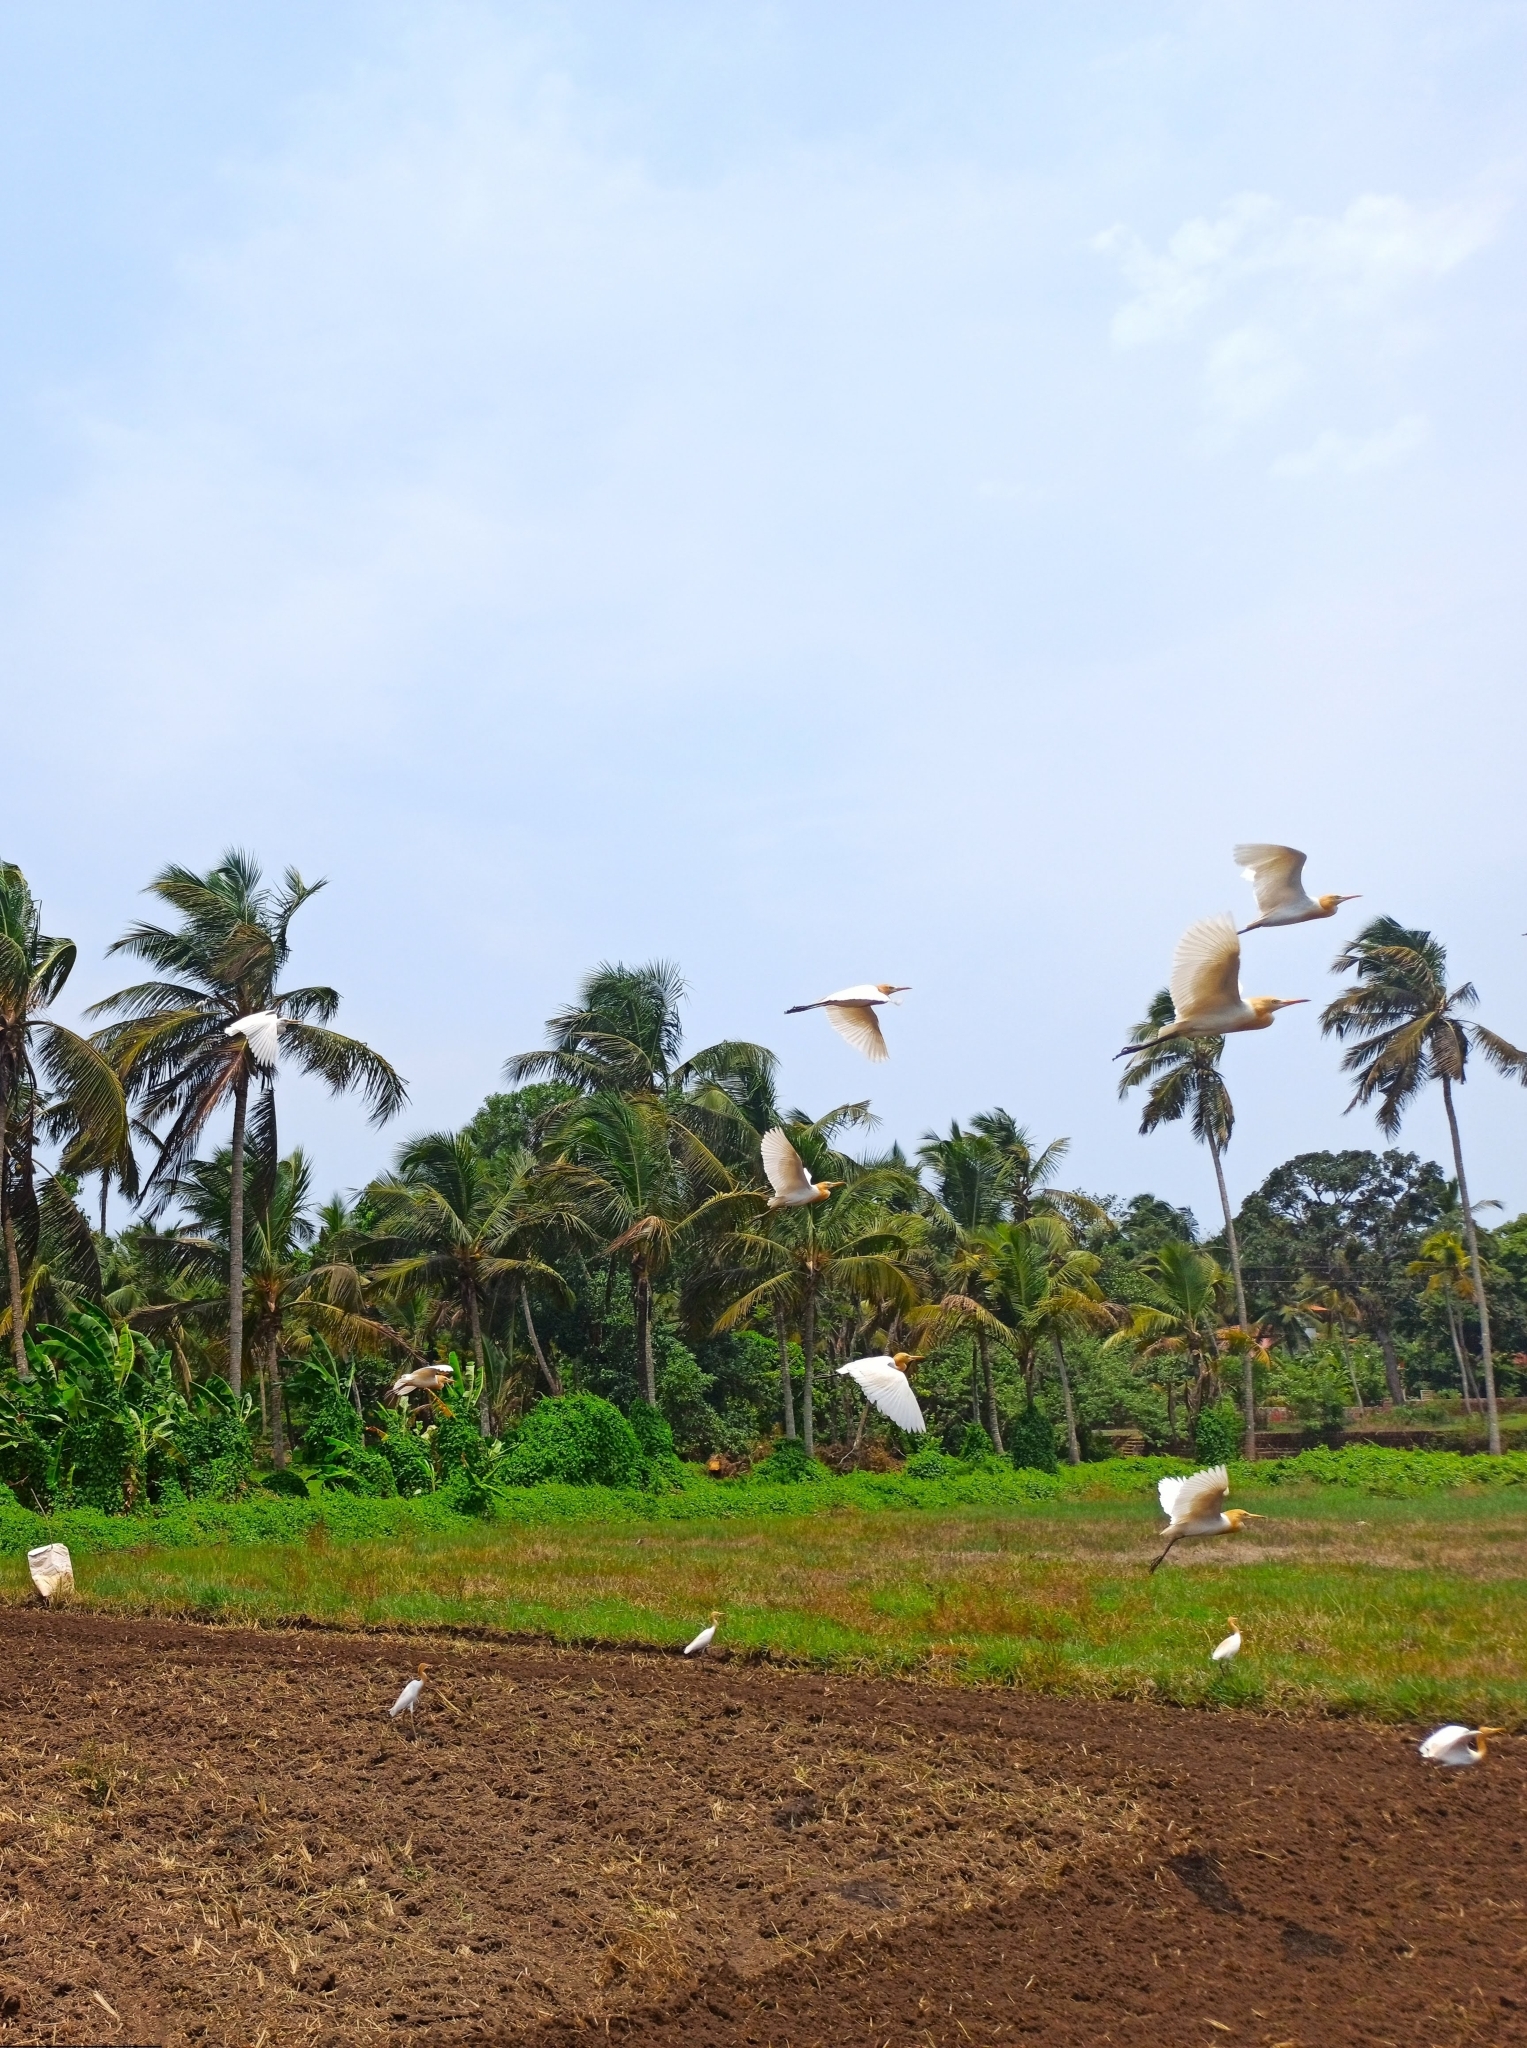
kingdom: Animalia
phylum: Chordata
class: Aves
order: Pelecaniformes
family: Ardeidae
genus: Bubulcus
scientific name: Bubulcus coromandus
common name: Eastern cattle egret
